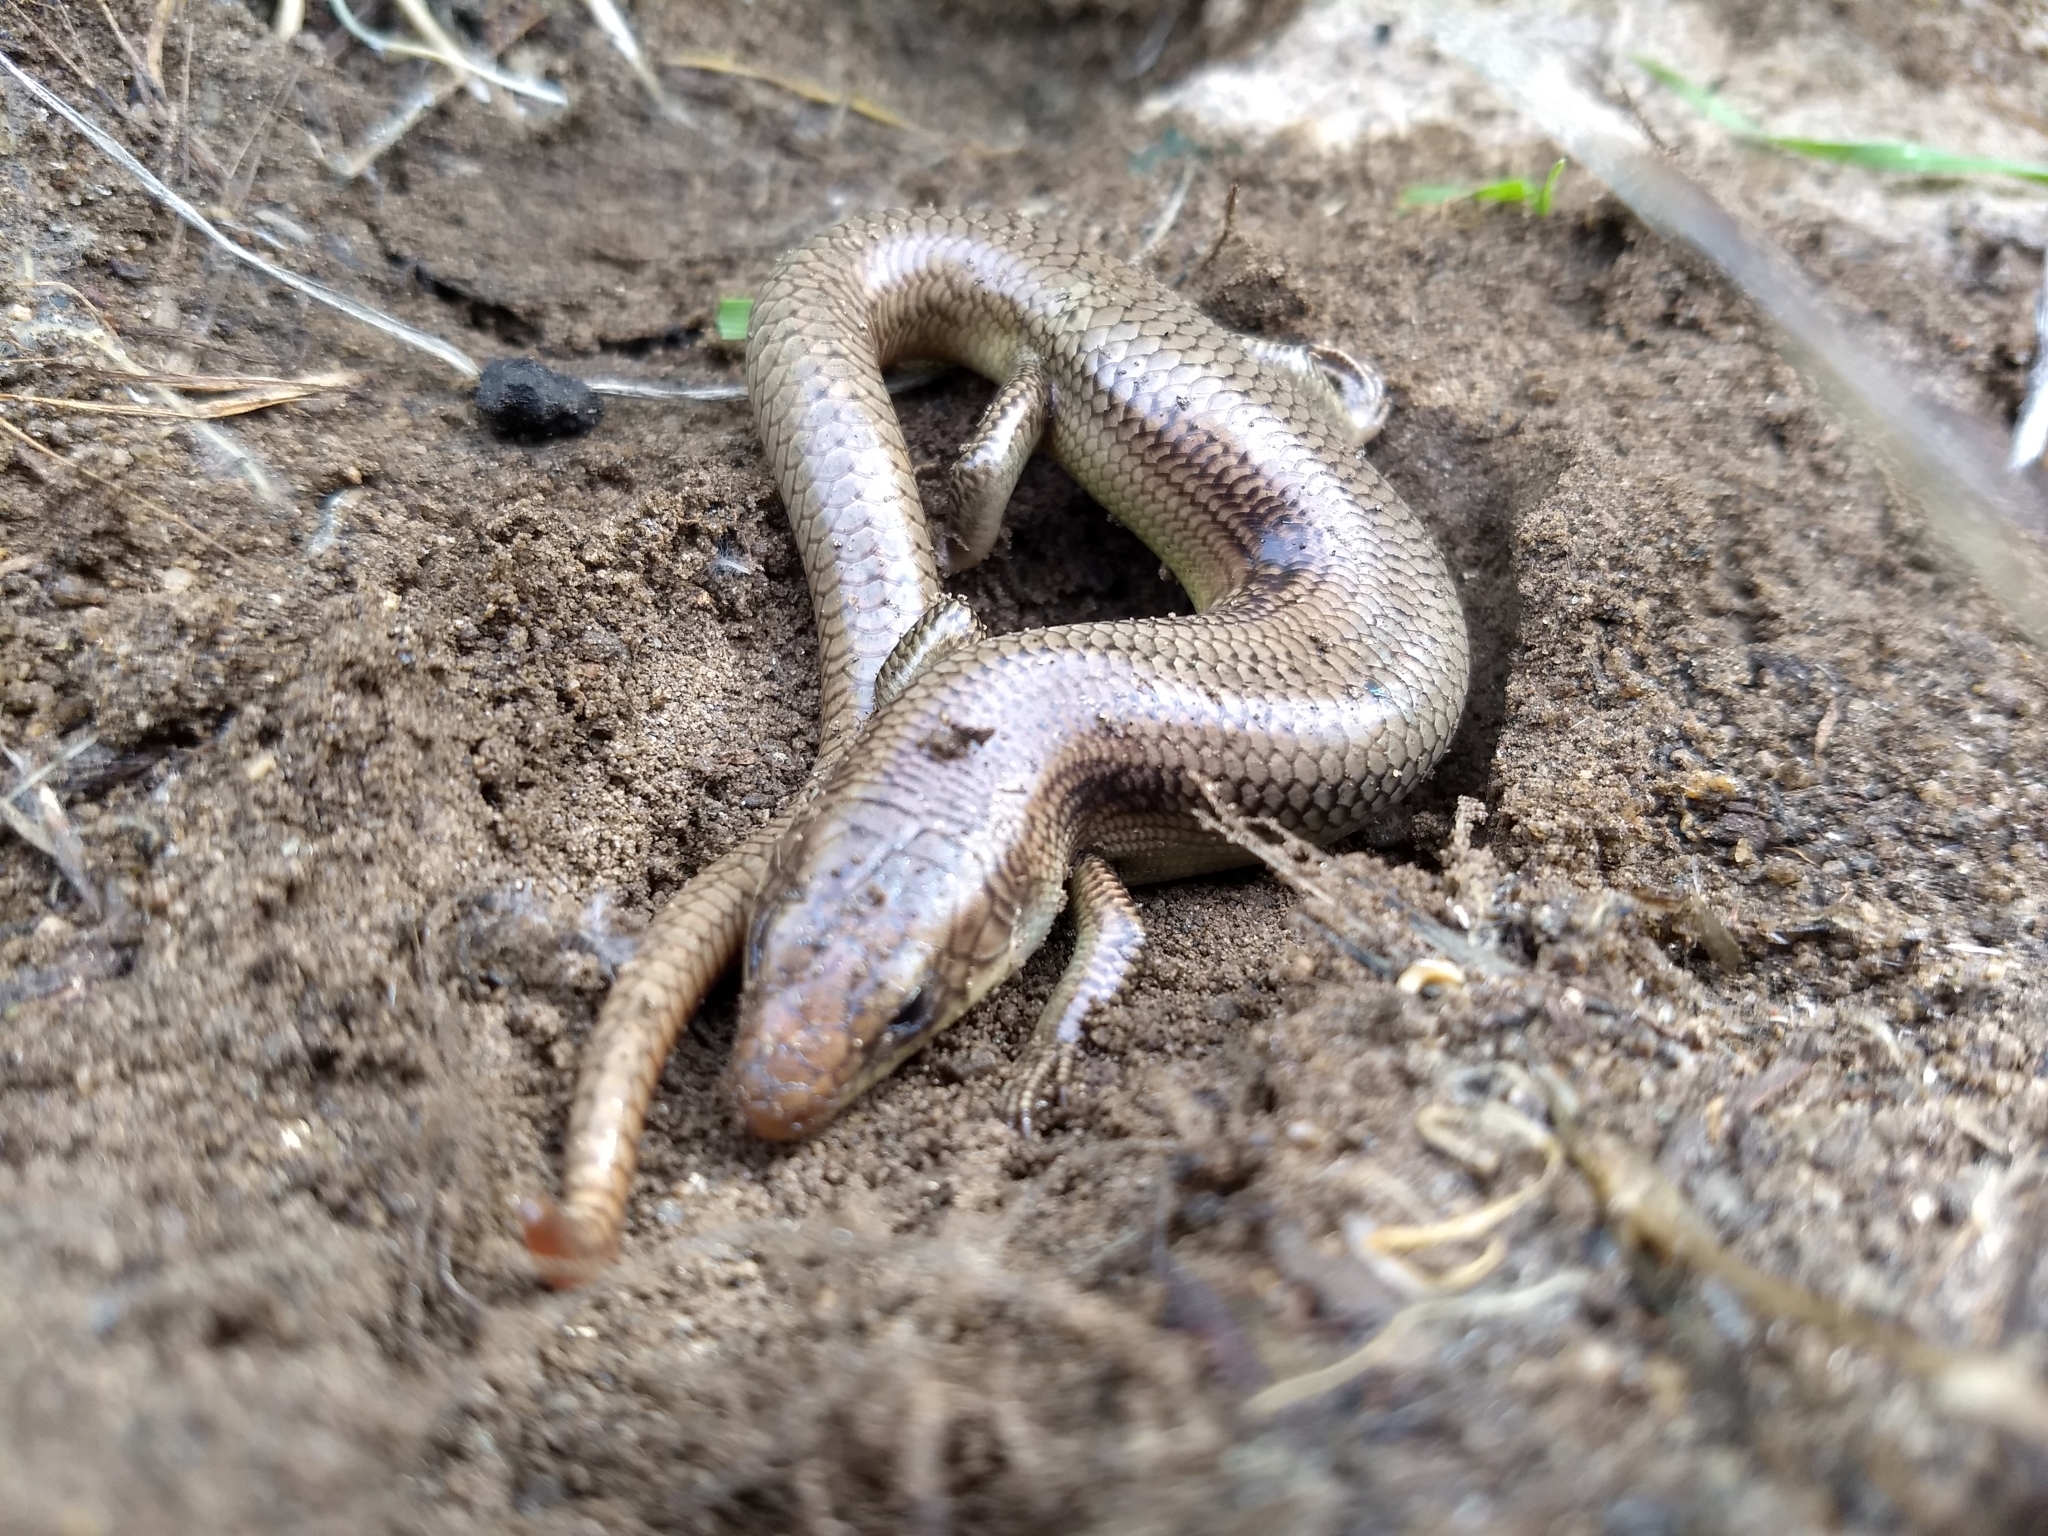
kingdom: Animalia
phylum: Chordata
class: Squamata
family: Scincidae
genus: Plestiodon
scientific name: Plestiodon gilberti
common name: Gilbert's skink
